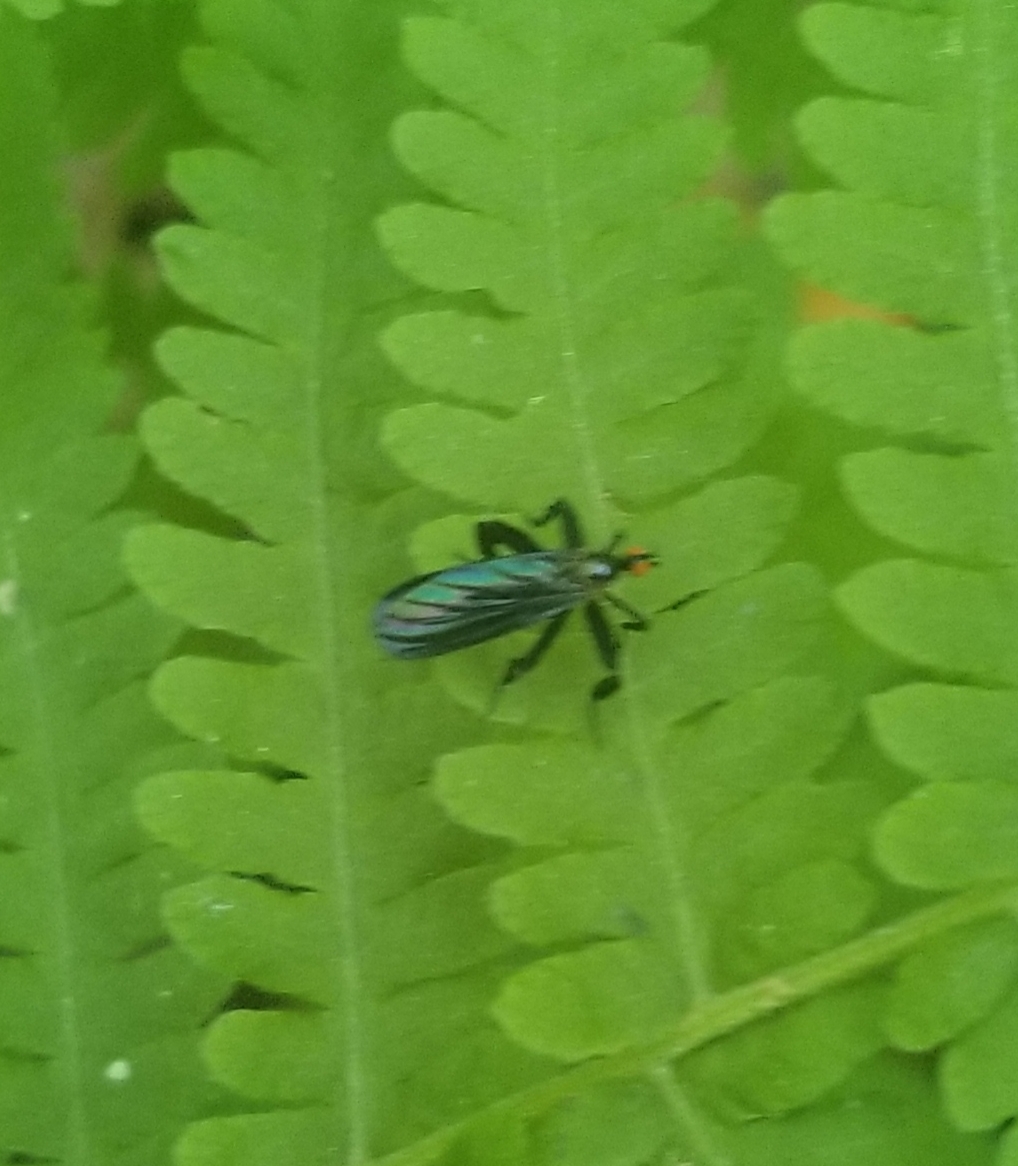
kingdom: Animalia
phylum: Arthropoda
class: Insecta
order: Diptera
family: Empididae
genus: Rhamphomyia
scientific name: Rhamphomyia longicauda
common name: Long-tailed dance fly
